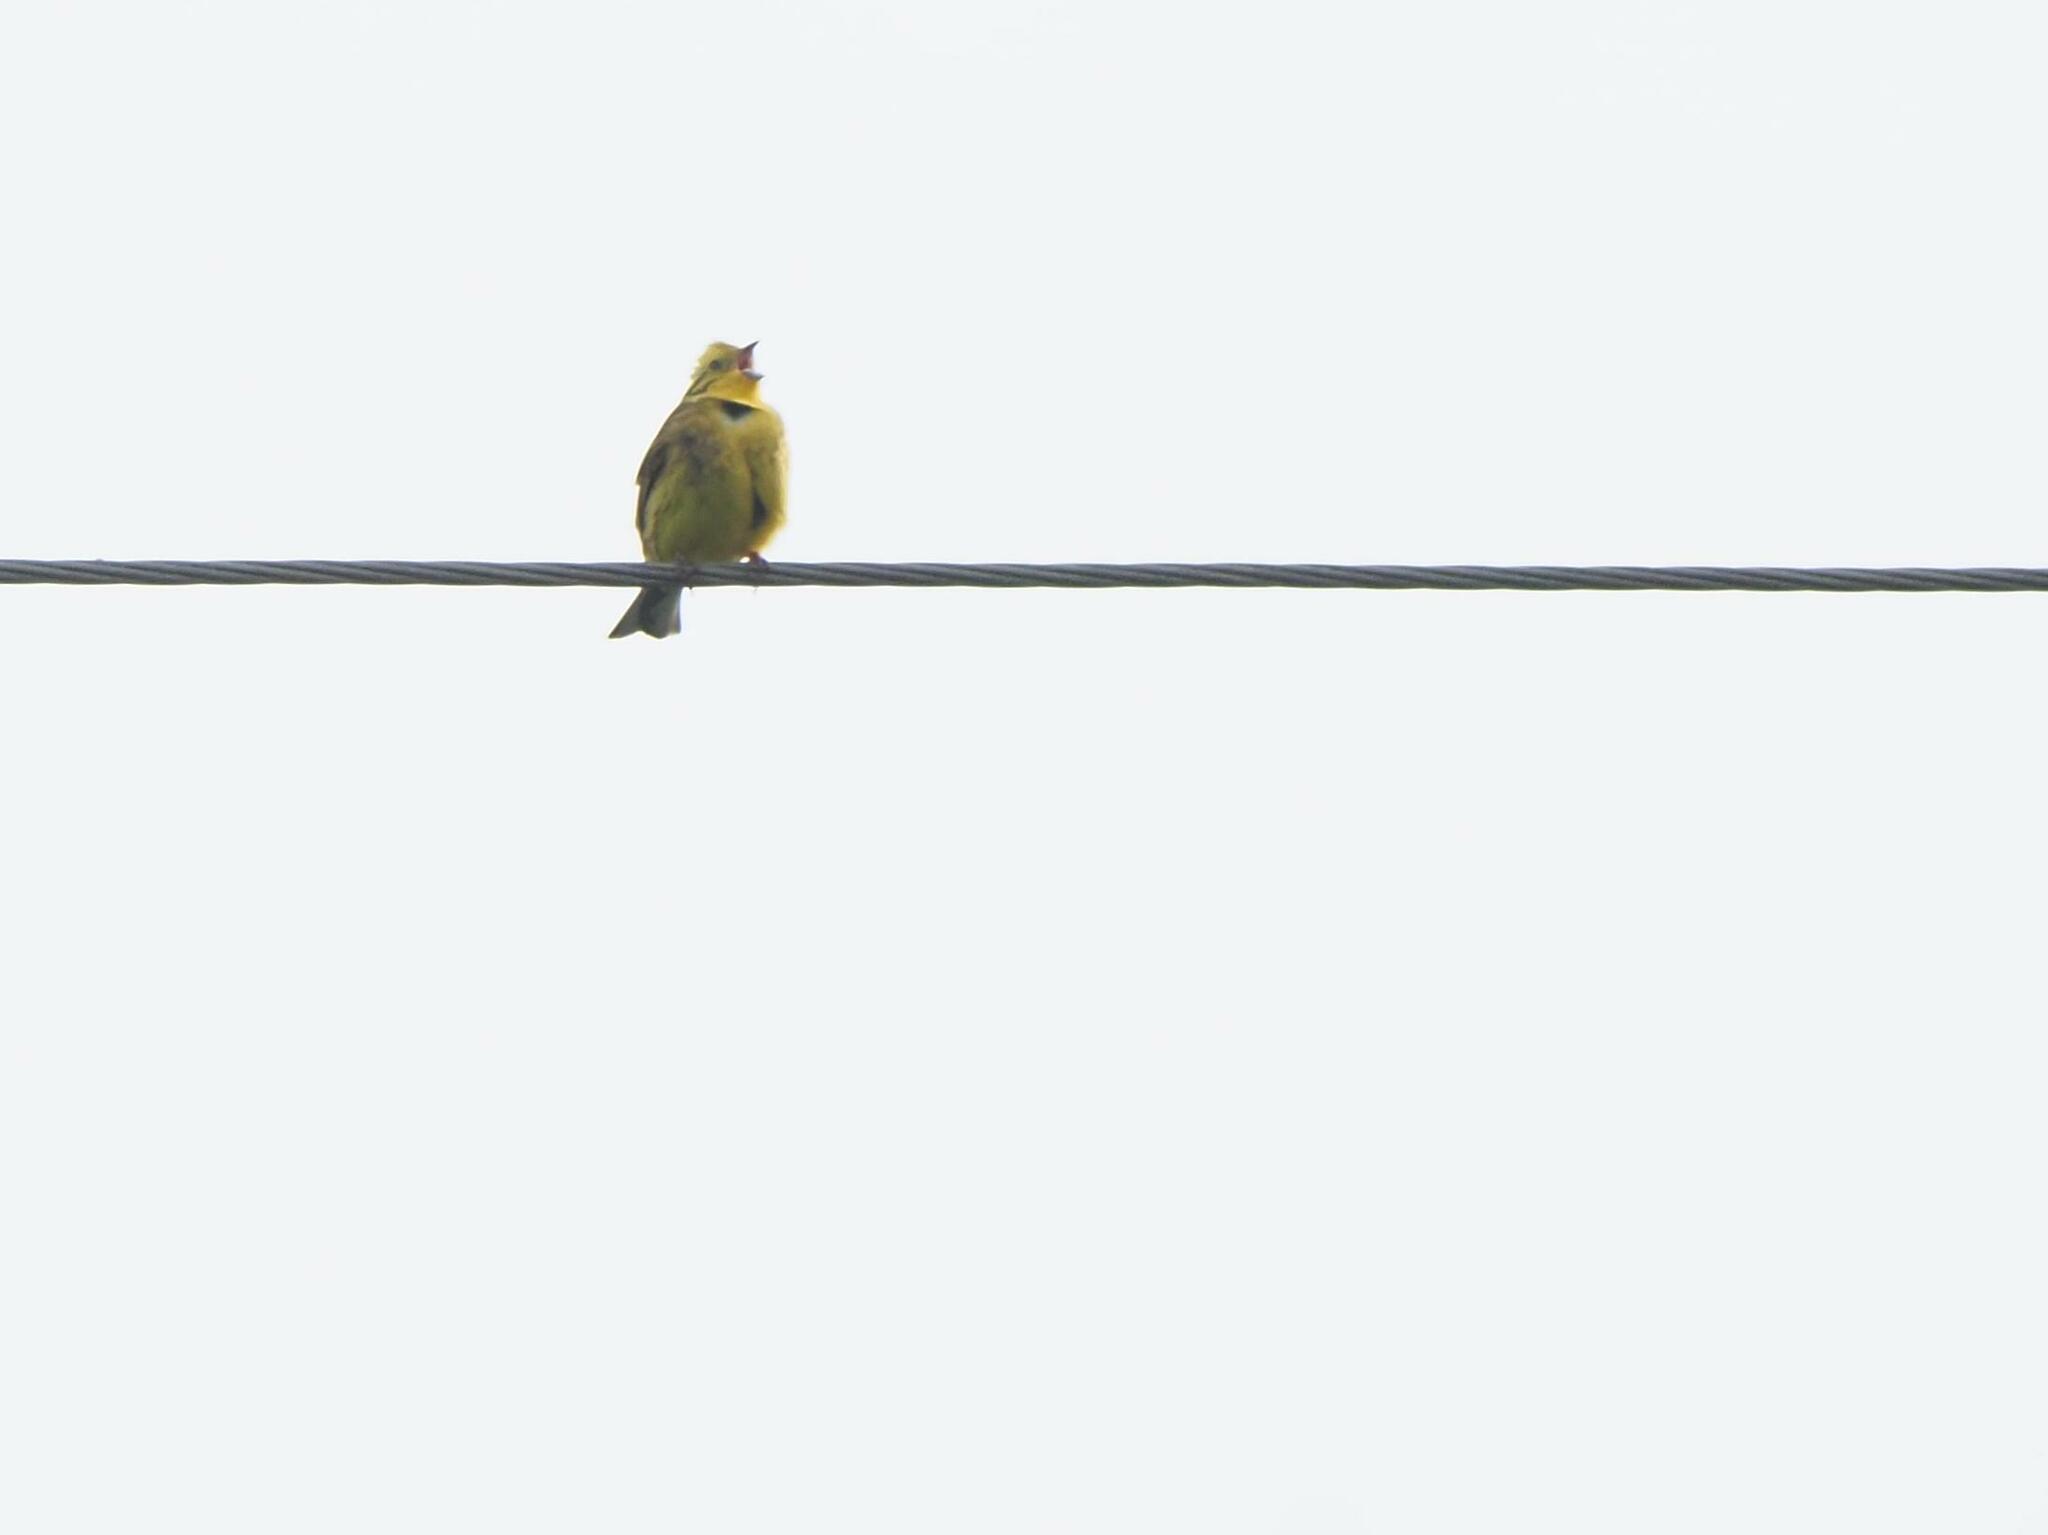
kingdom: Animalia
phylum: Chordata
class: Aves
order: Passeriformes
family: Emberizidae
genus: Emberiza
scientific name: Emberiza citrinella
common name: Yellowhammer
